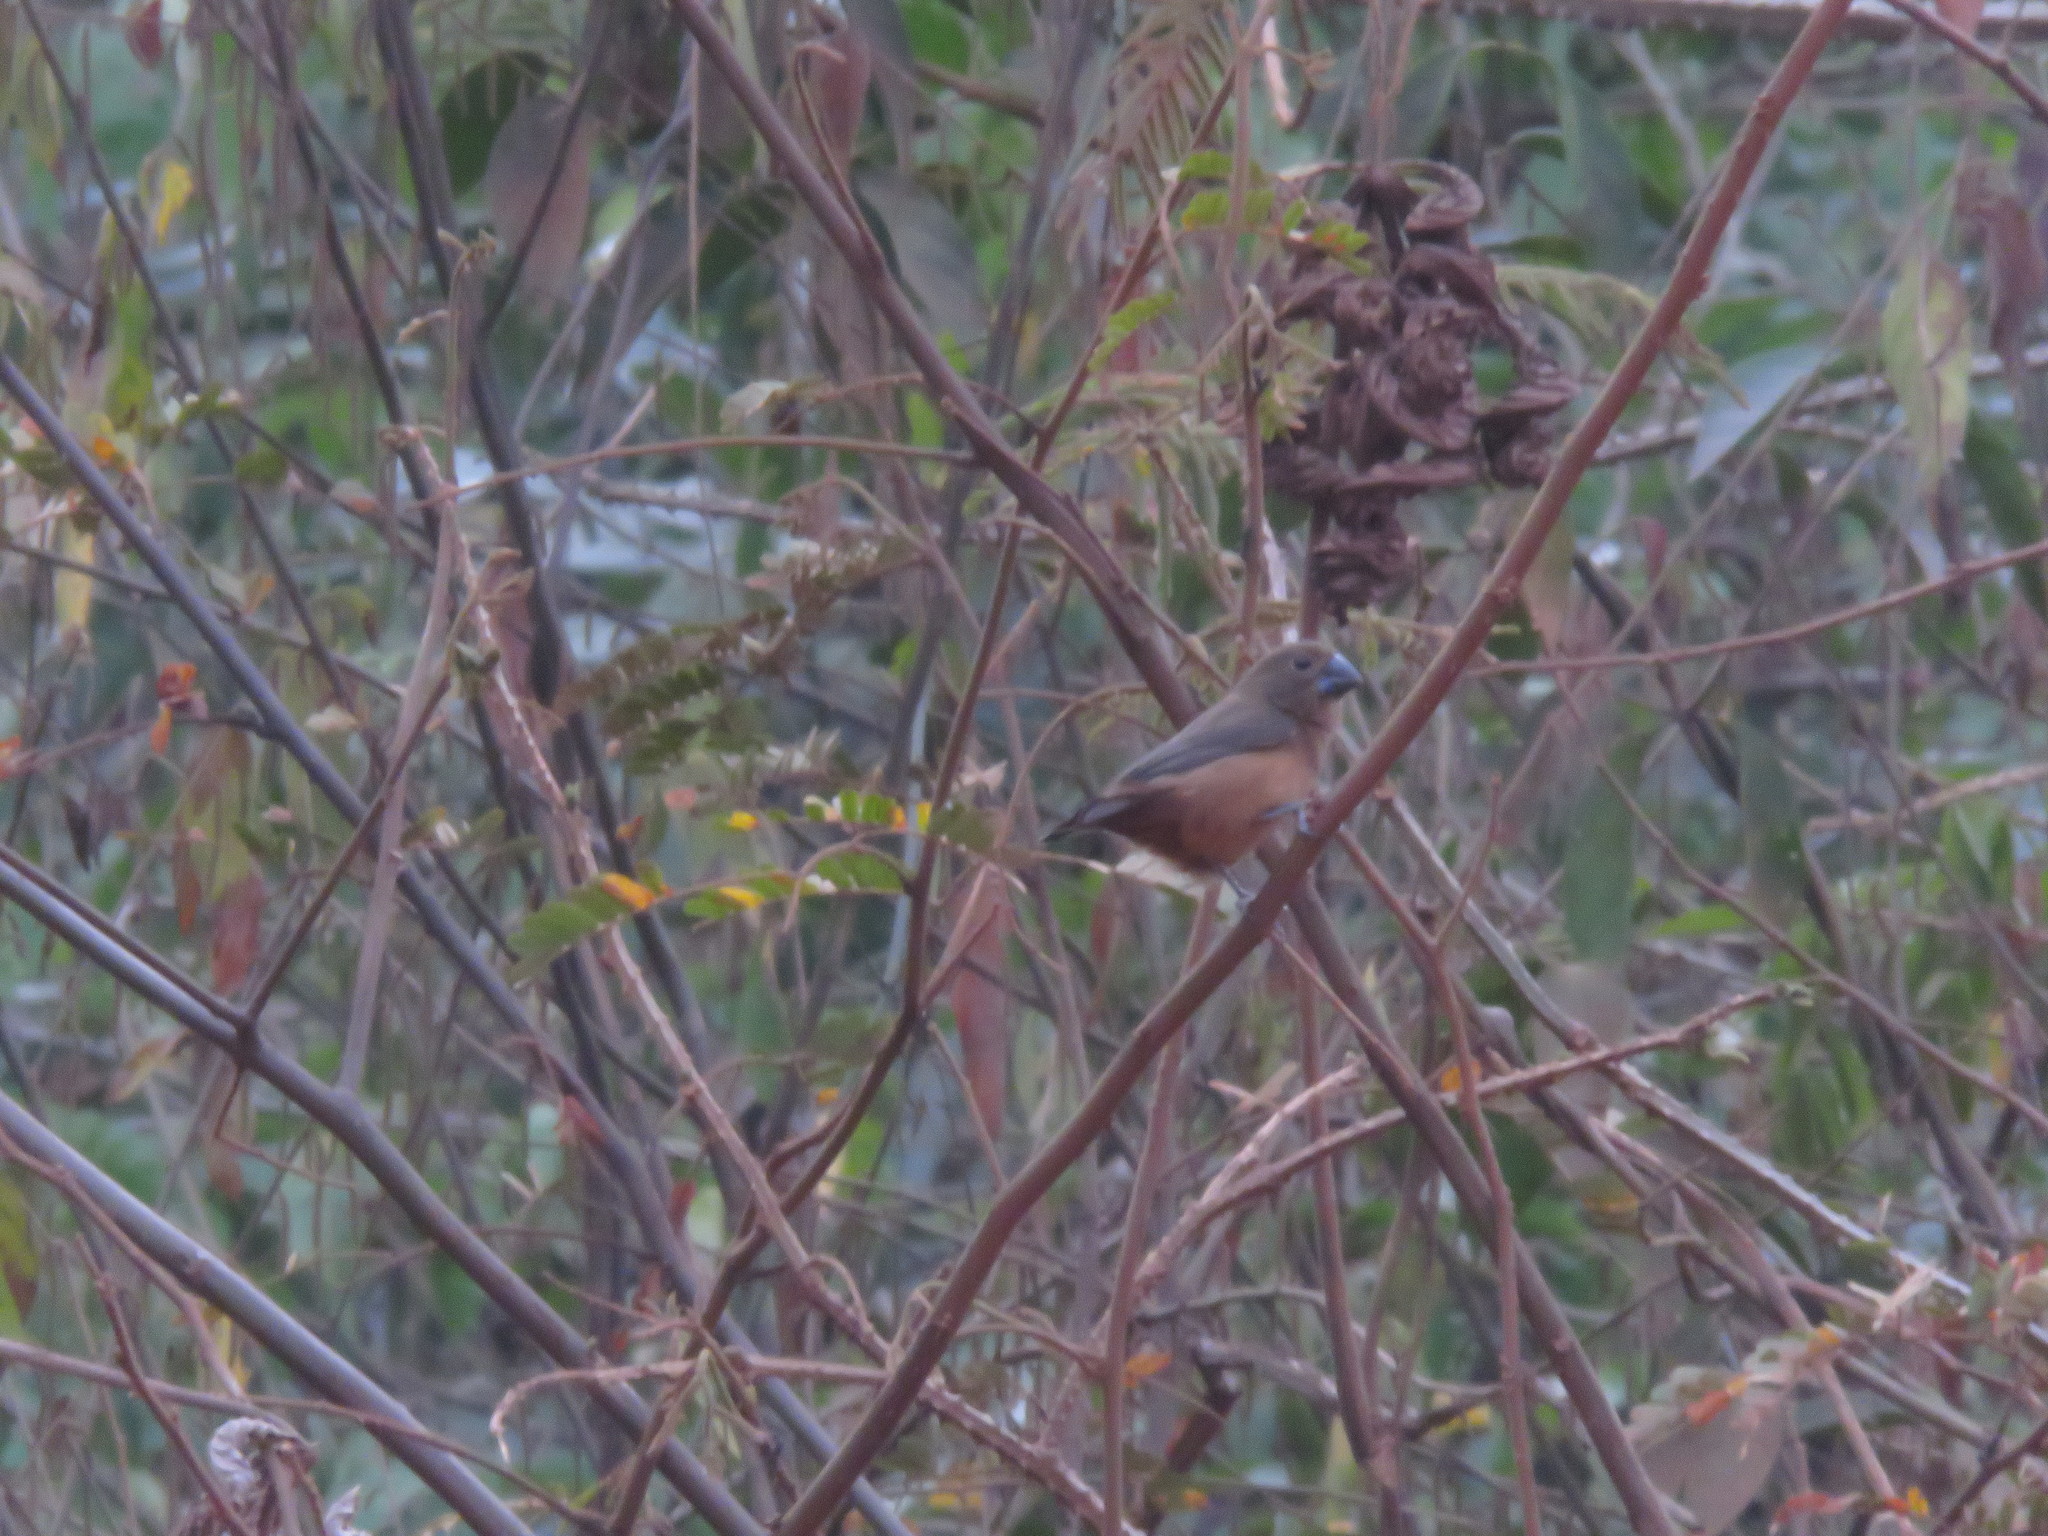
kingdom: Animalia
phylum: Chordata
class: Aves
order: Passeriformes
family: Thraupidae
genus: Sporophila
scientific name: Sporophila angolensis
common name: Chestnut-bellied seed-finch
